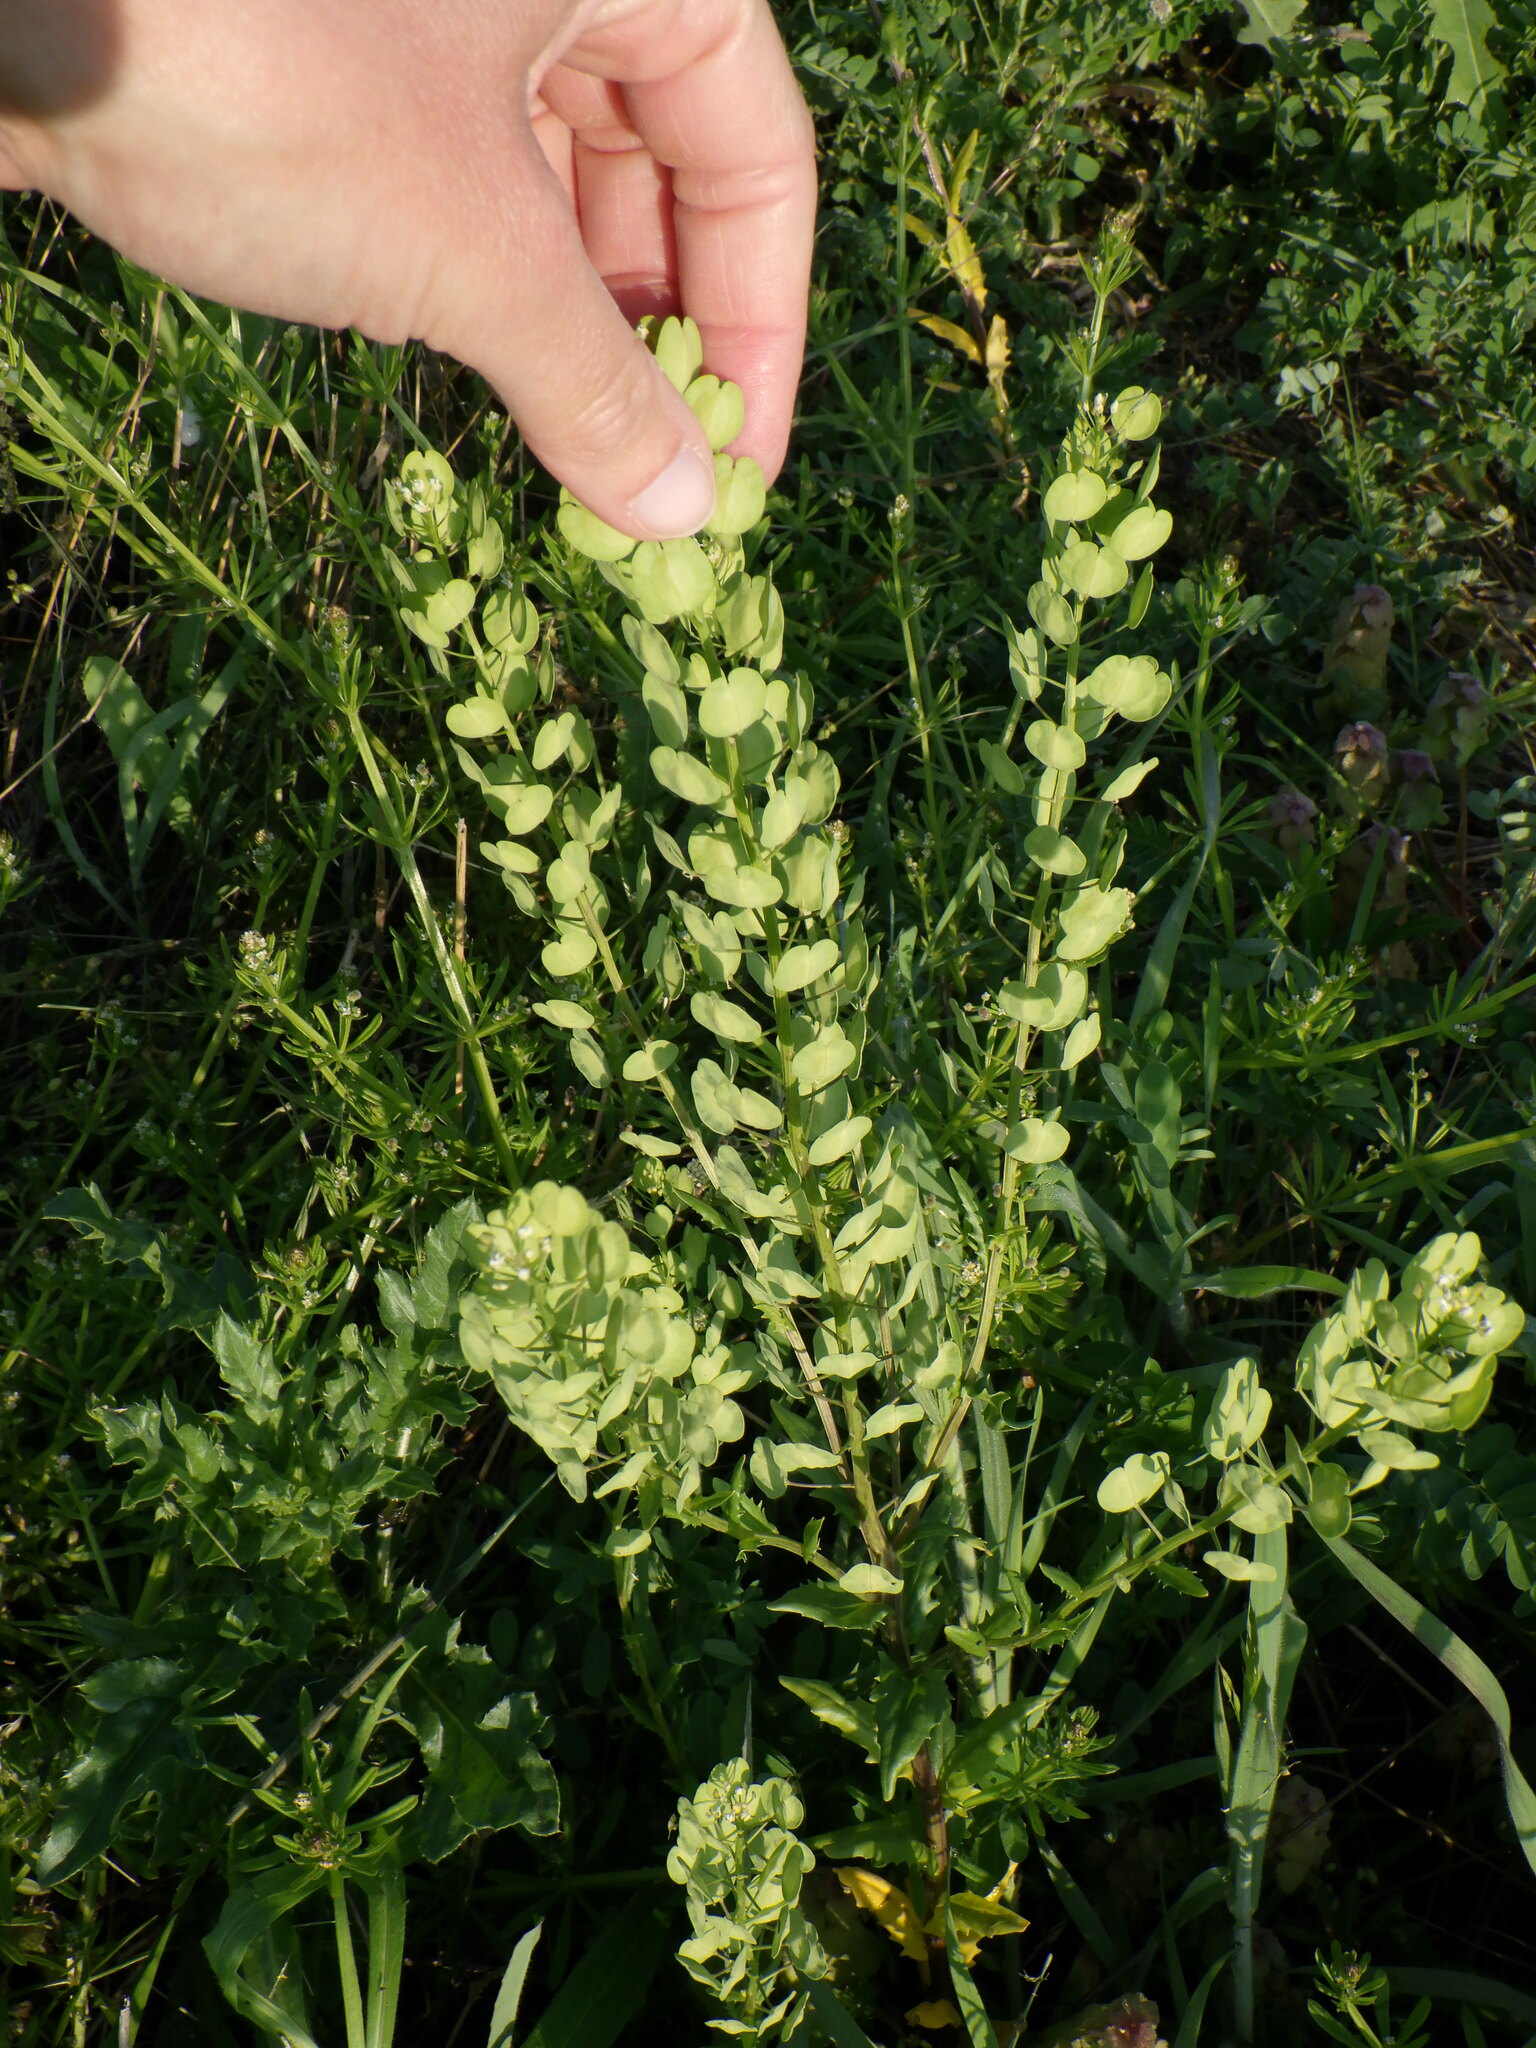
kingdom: Plantae
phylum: Tracheophyta
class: Magnoliopsida
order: Brassicales
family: Brassicaceae
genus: Thlaspi
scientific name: Thlaspi arvense
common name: Field pennycress
